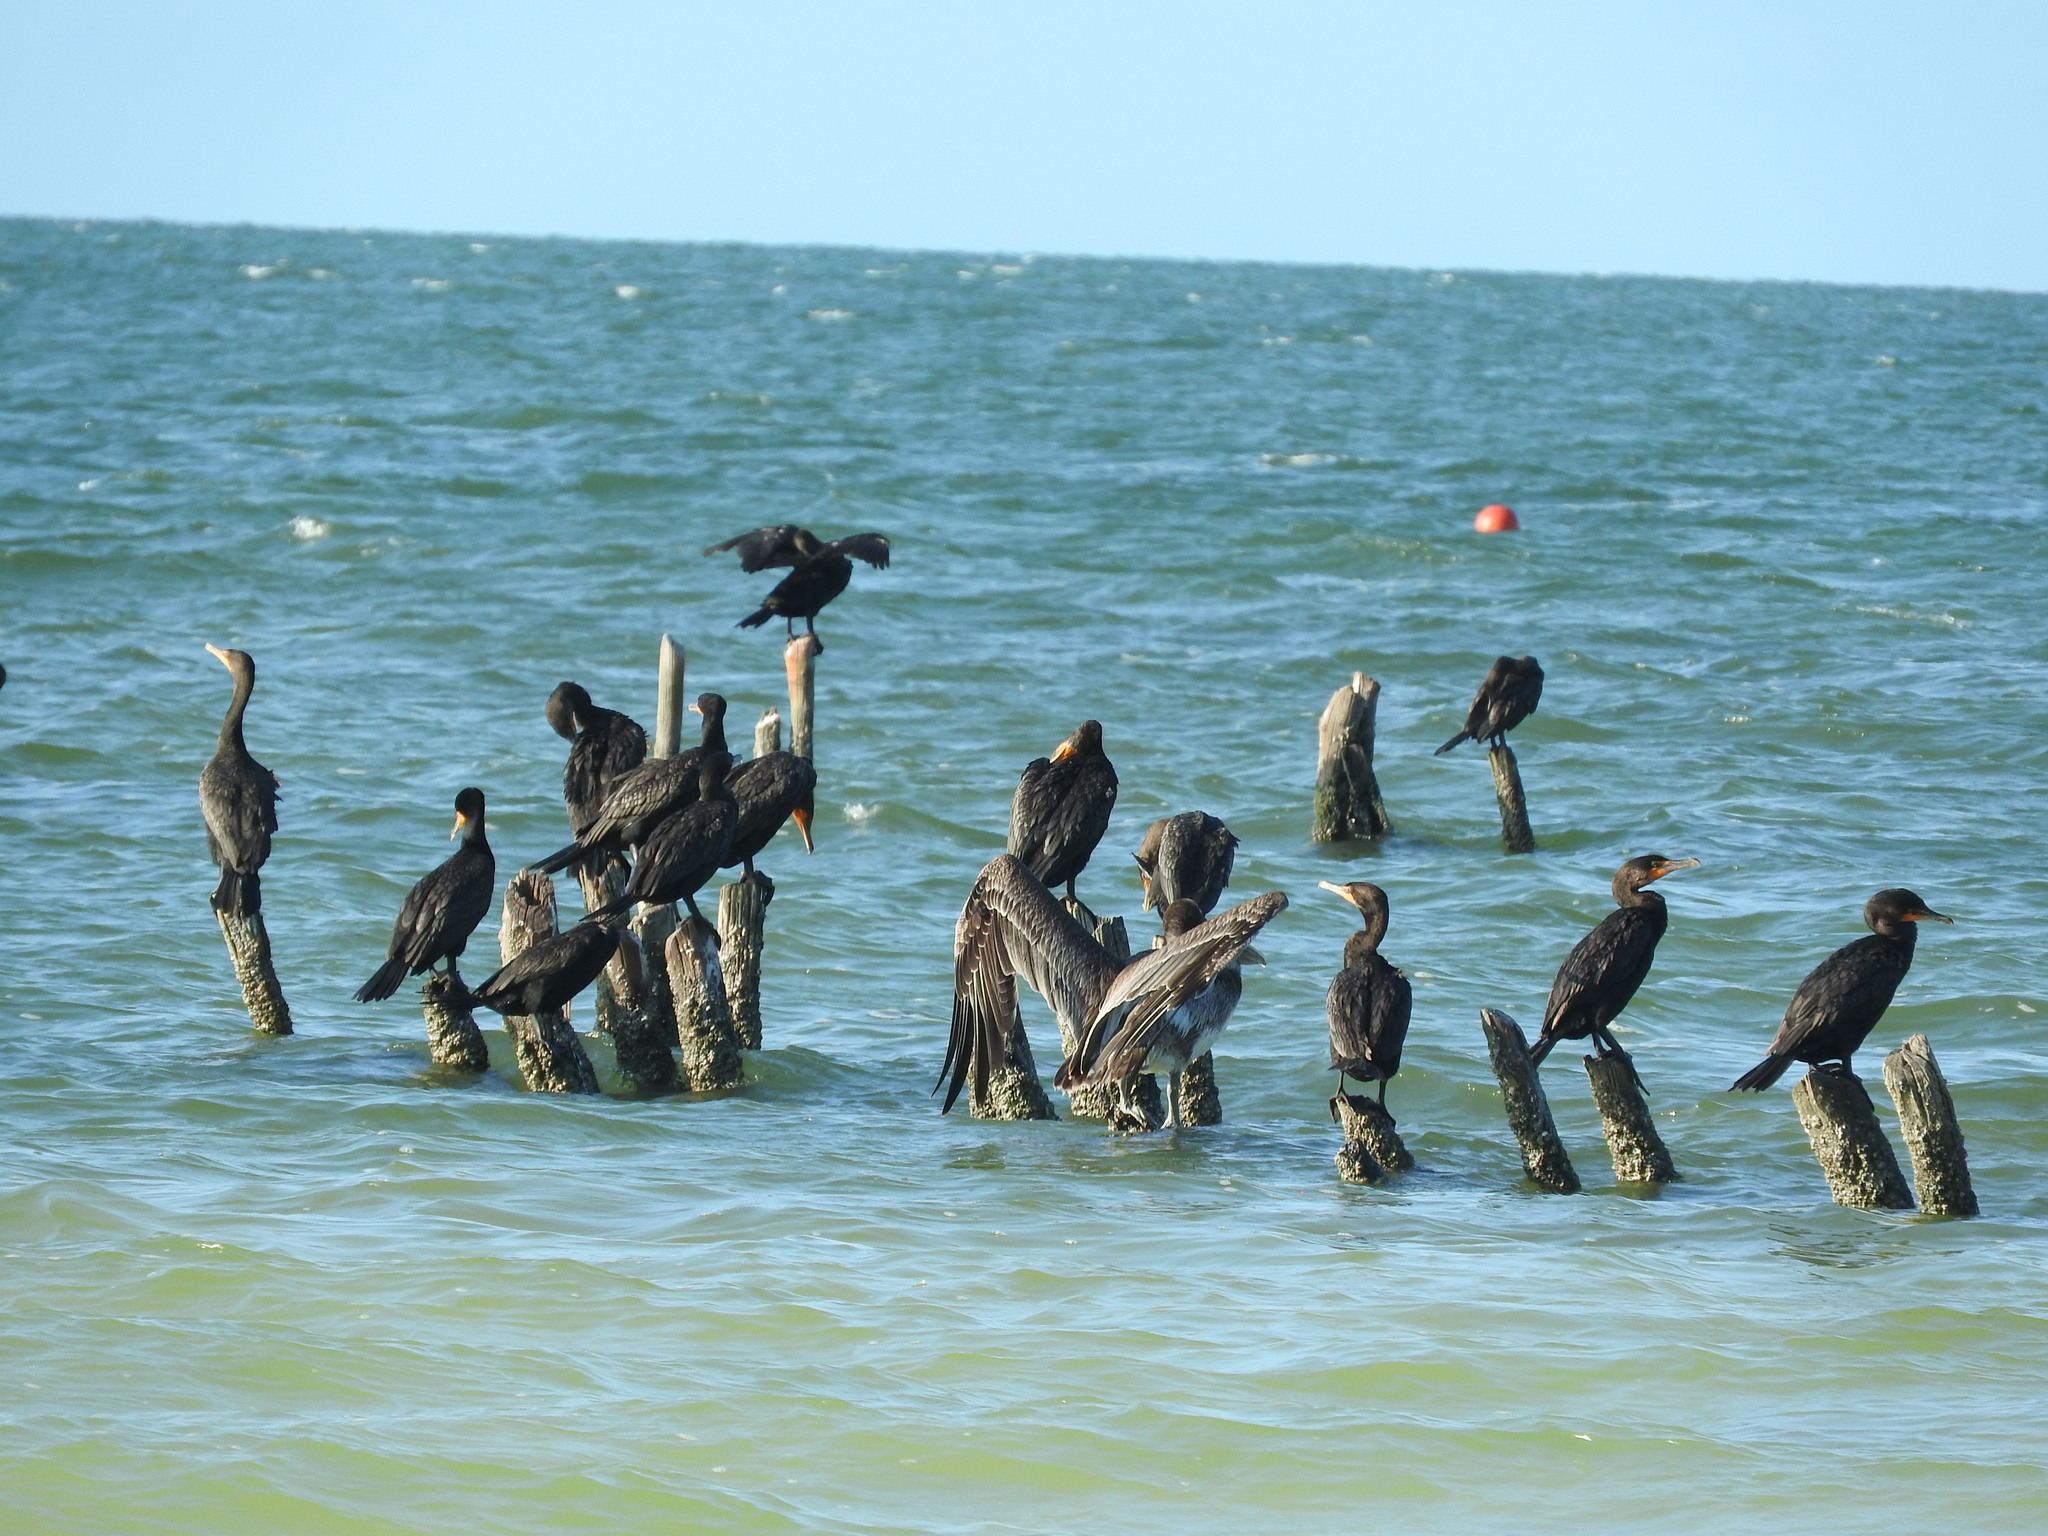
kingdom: Animalia
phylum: Chordata
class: Aves
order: Suliformes
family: Phalacrocoracidae
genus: Phalacrocorax
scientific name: Phalacrocorax auritus
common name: Double-crested cormorant
